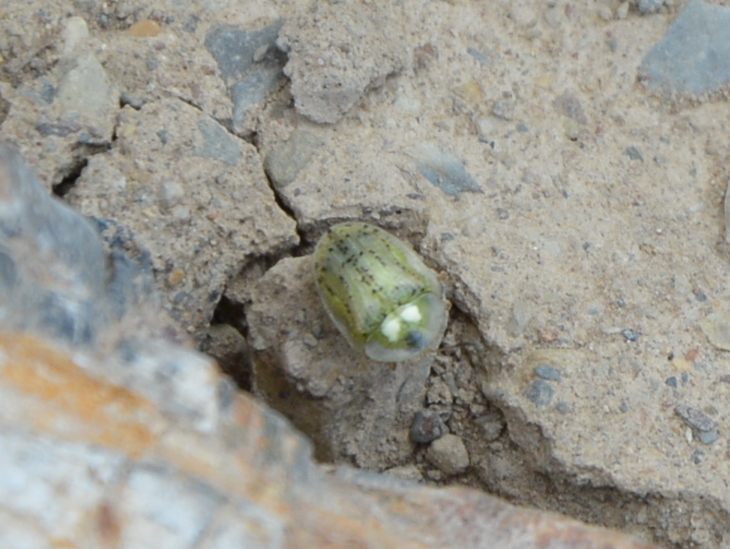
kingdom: Animalia
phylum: Arthropoda
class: Insecta
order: Coleoptera
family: Chrysomelidae
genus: Cassida
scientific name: Cassida nebulosa
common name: Beet tortoise beetle
